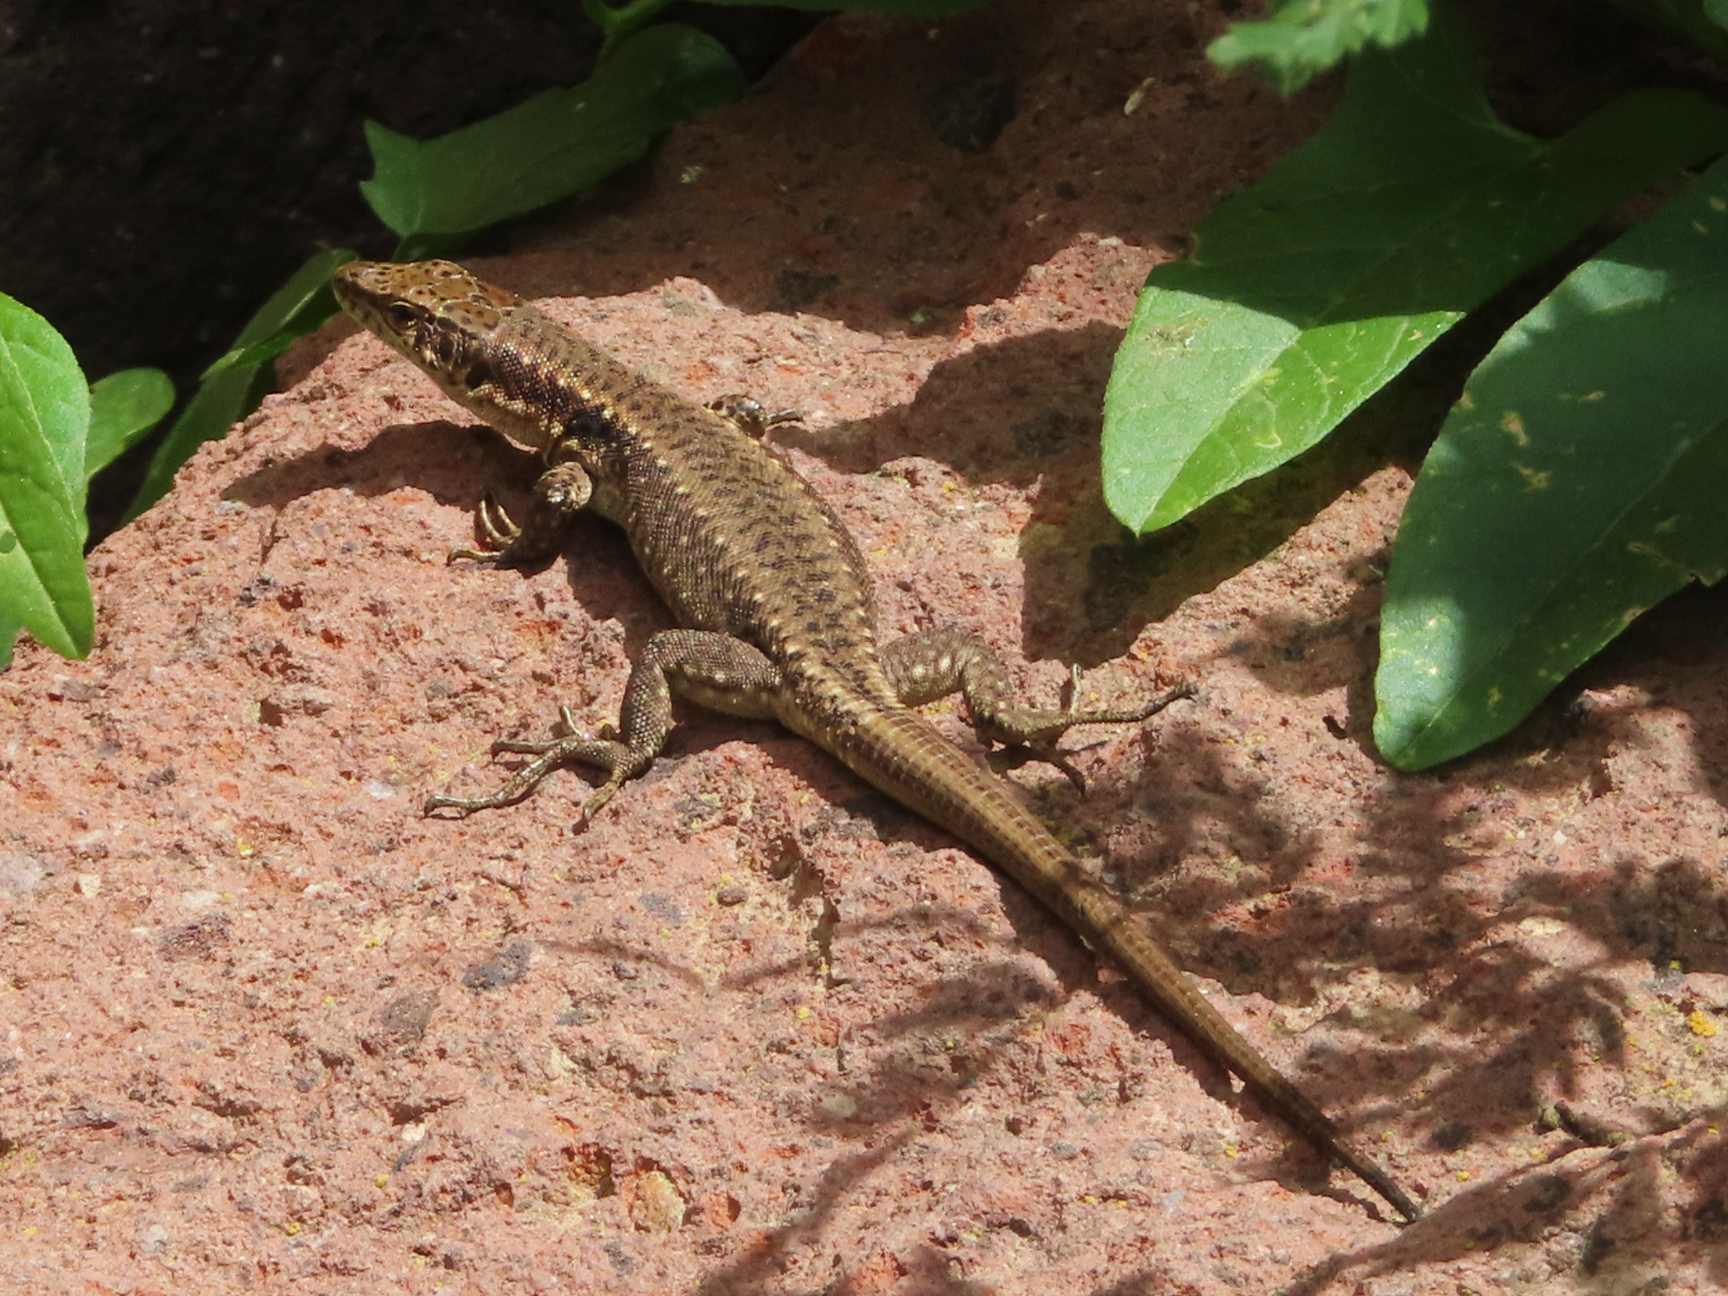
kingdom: Animalia
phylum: Chordata
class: Squamata
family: Lacertidae
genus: Darevskia
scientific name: Darevskia
